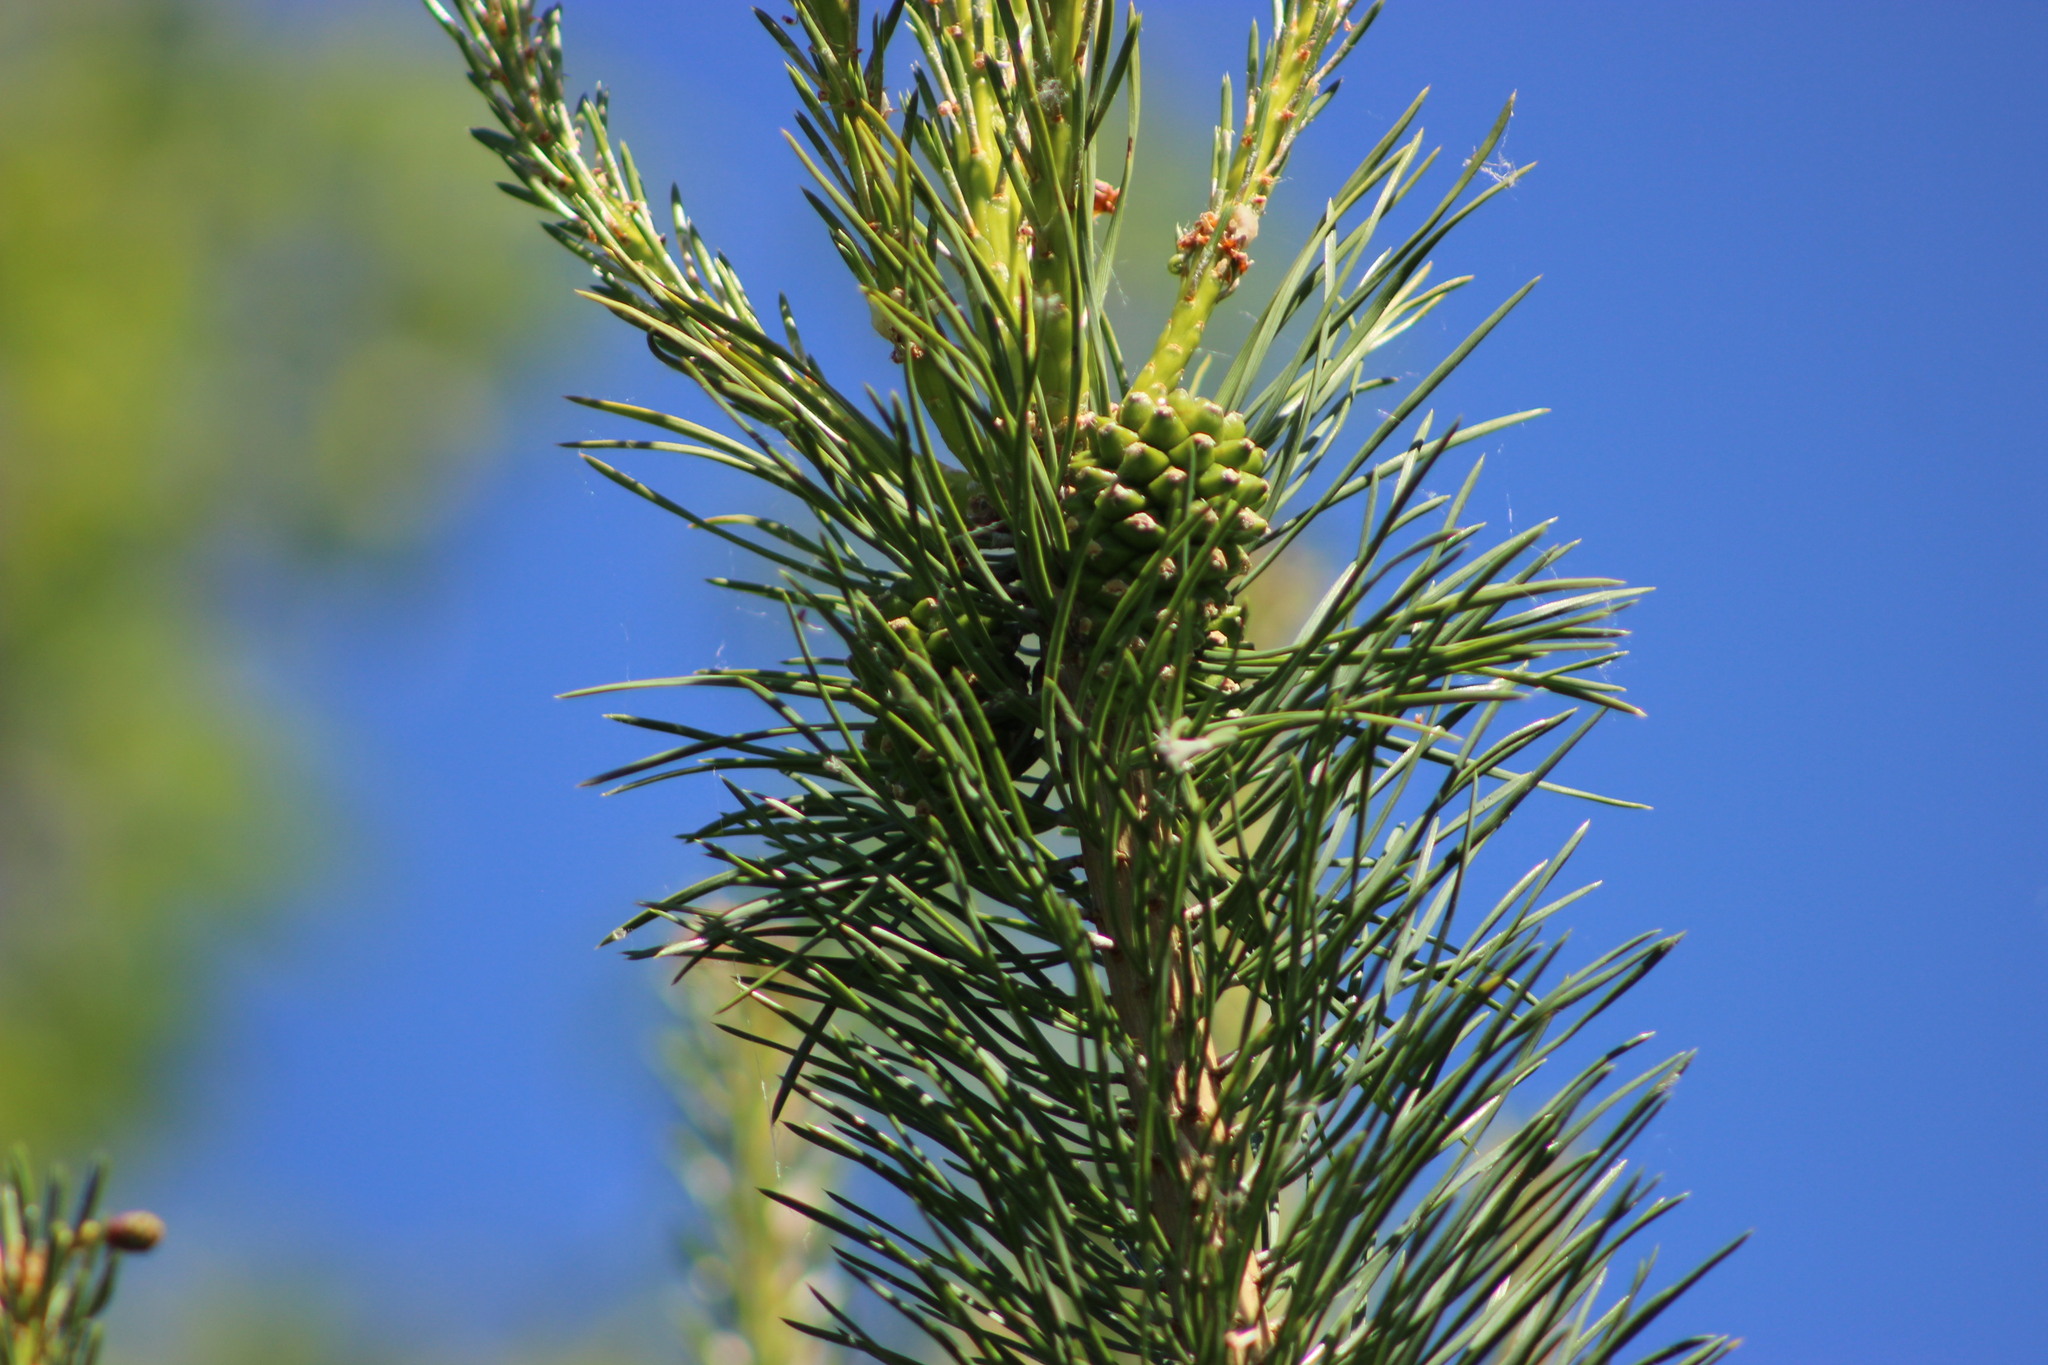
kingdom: Plantae
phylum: Tracheophyta
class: Pinopsida
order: Pinales
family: Pinaceae
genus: Pinus
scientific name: Pinus sylvestris
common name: Scots pine
